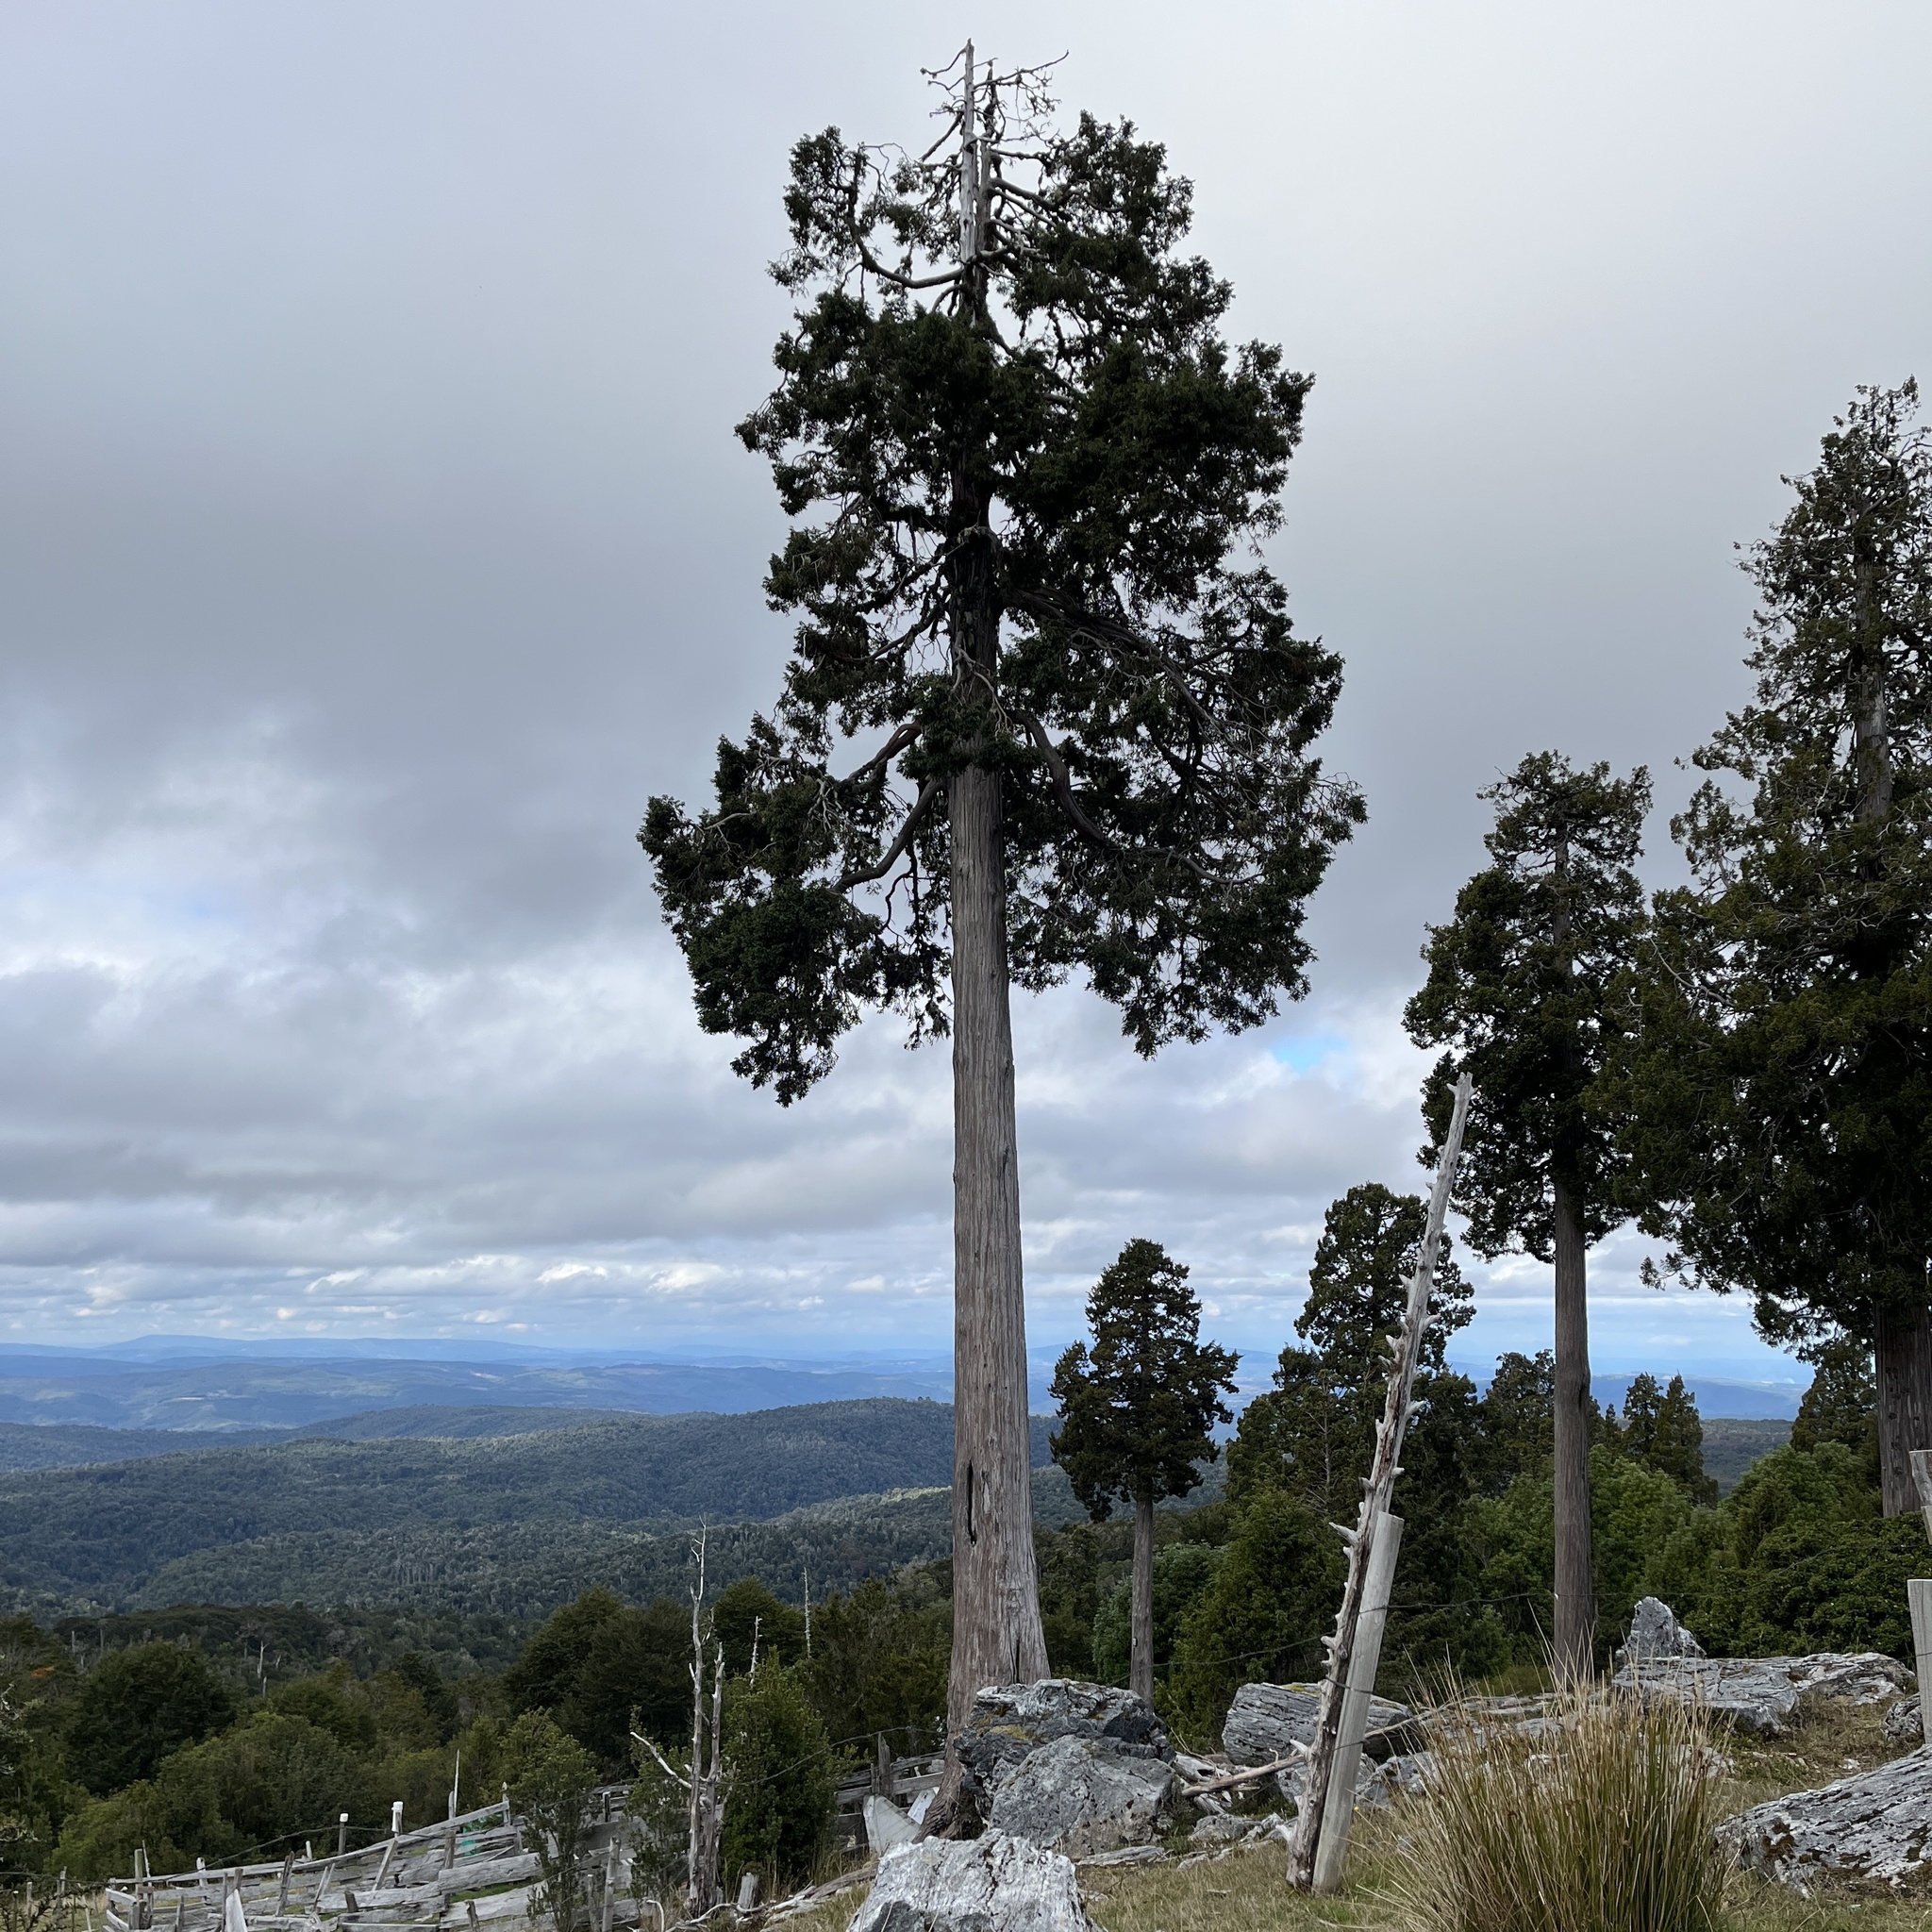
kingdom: Plantae
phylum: Tracheophyta
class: Pinopsida
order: Pinales
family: Cupressaceae
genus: Fitzroya
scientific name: Fitzroya cupressoides
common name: Patagonian cypress
